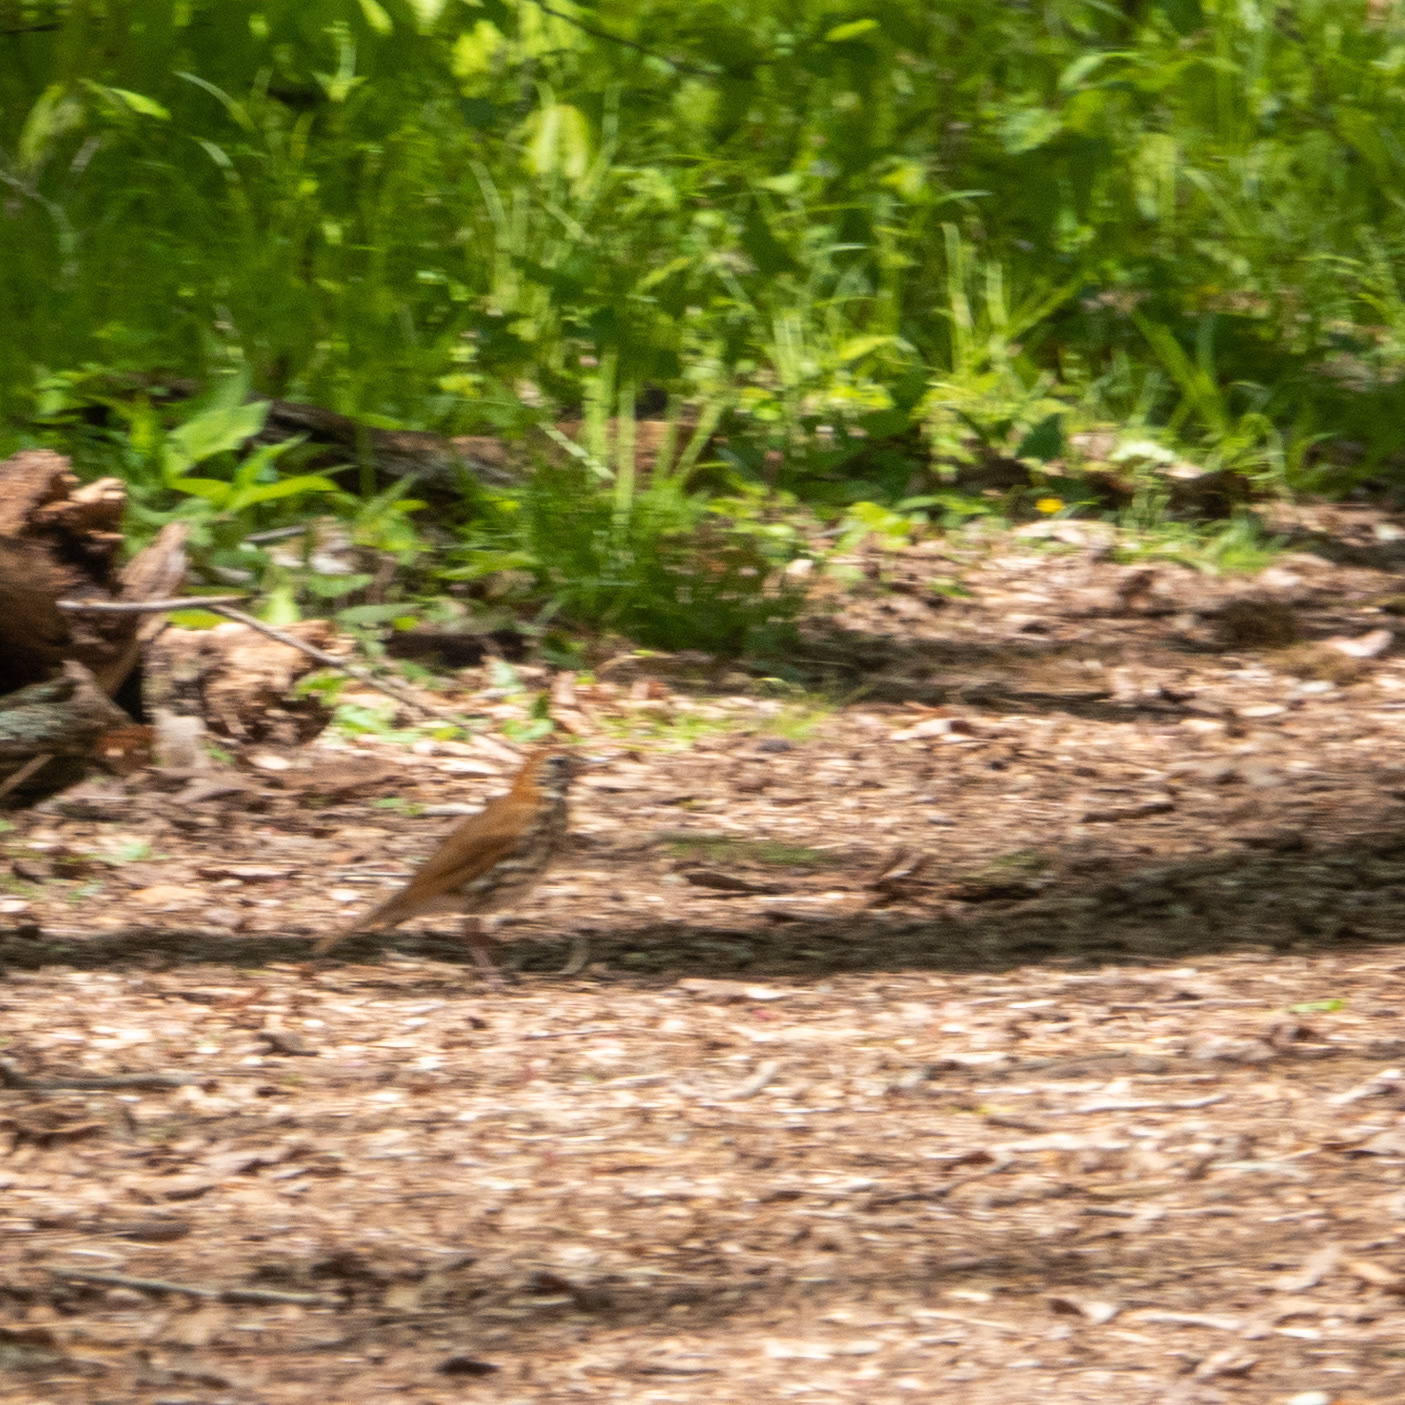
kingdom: Animalia
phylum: Chordata
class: Aves
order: Passeriformes
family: Turdidae
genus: Hylocichla
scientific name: Hylocichla mustelina
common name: Wood thrush
